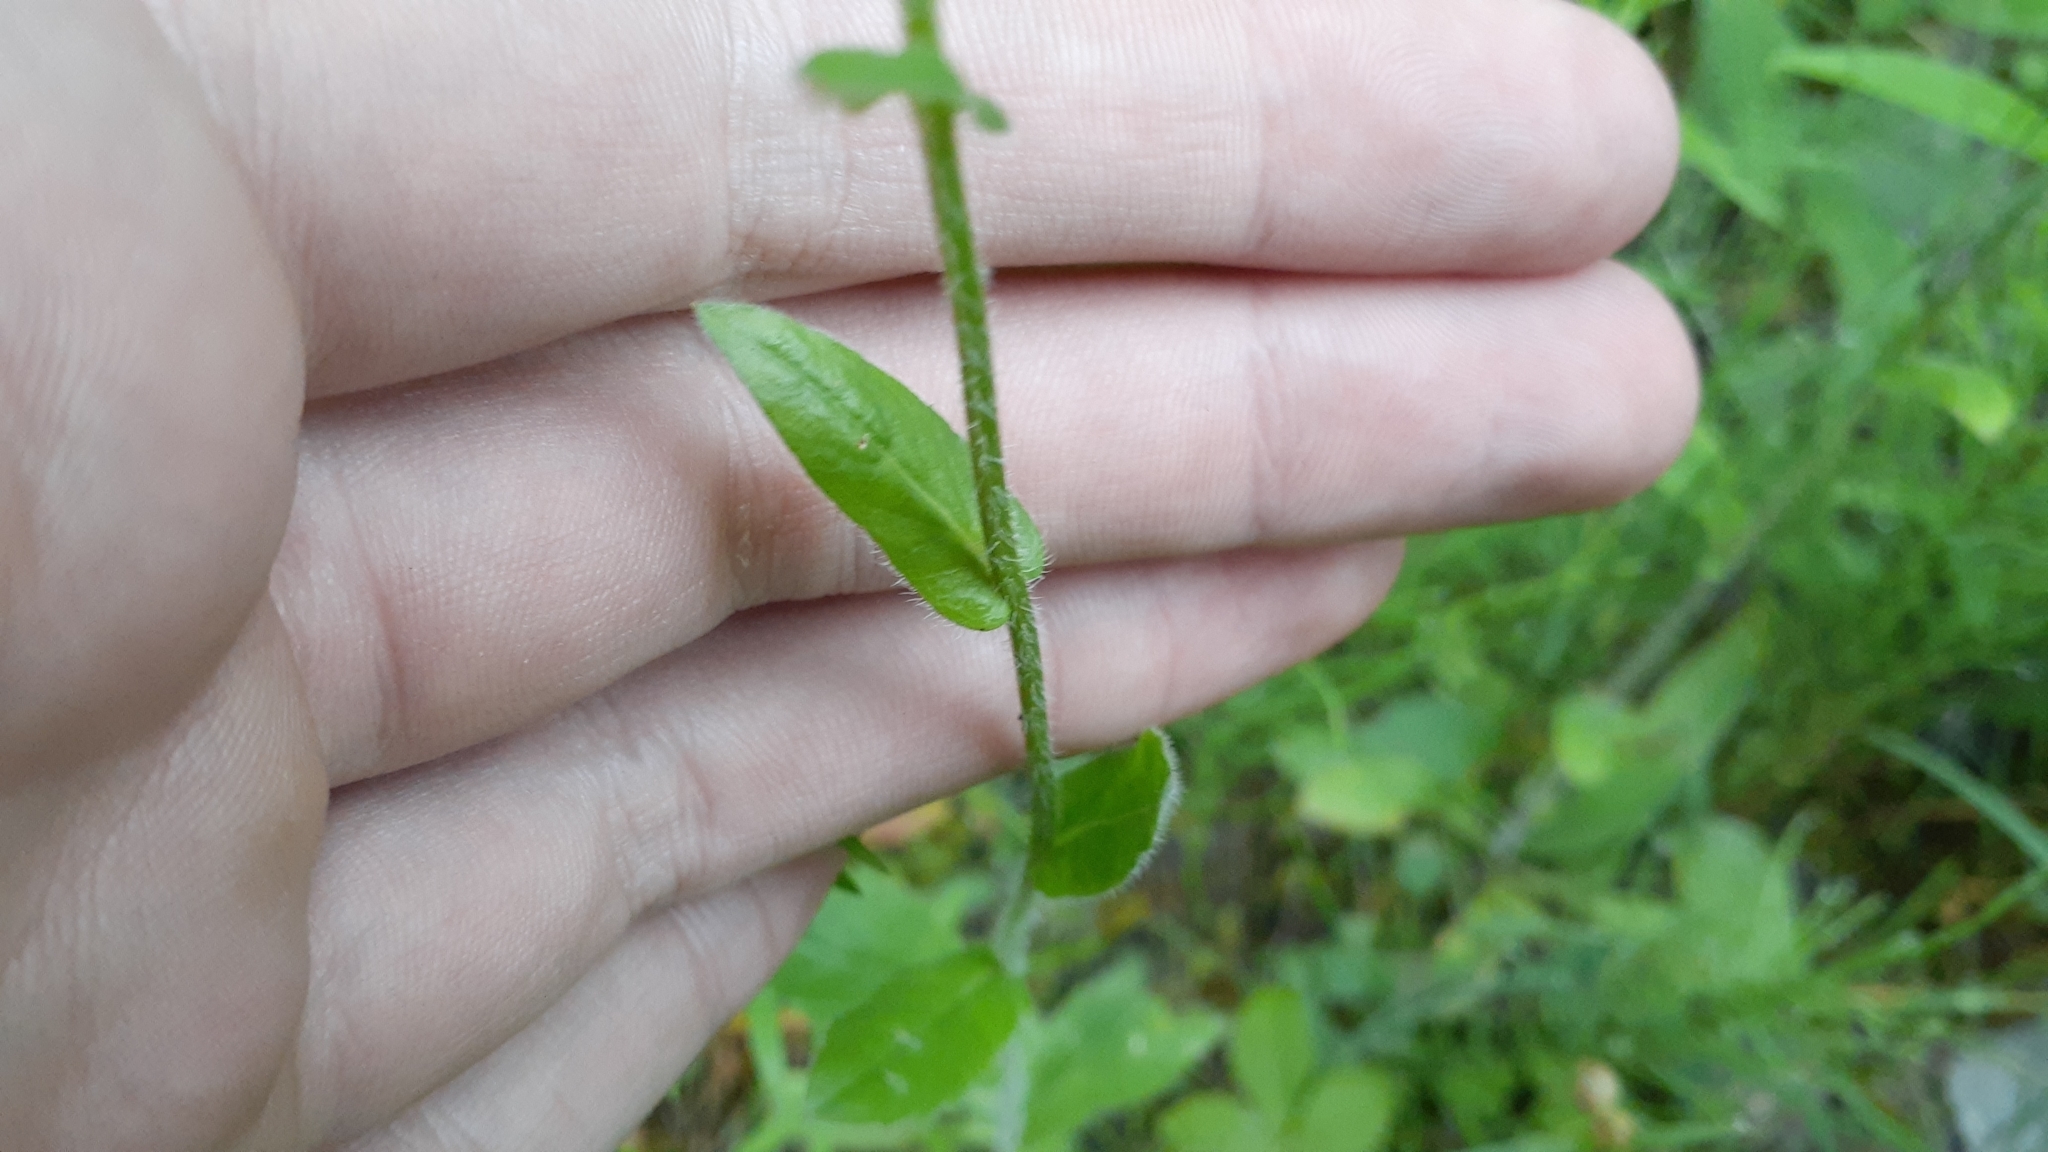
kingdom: Plantae
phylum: Tracheophyta
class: Magnoliopsida
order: Asterales
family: Asteraceae
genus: Erigeron
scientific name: Erigeron philadelphicus
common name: Robin's-plantain
